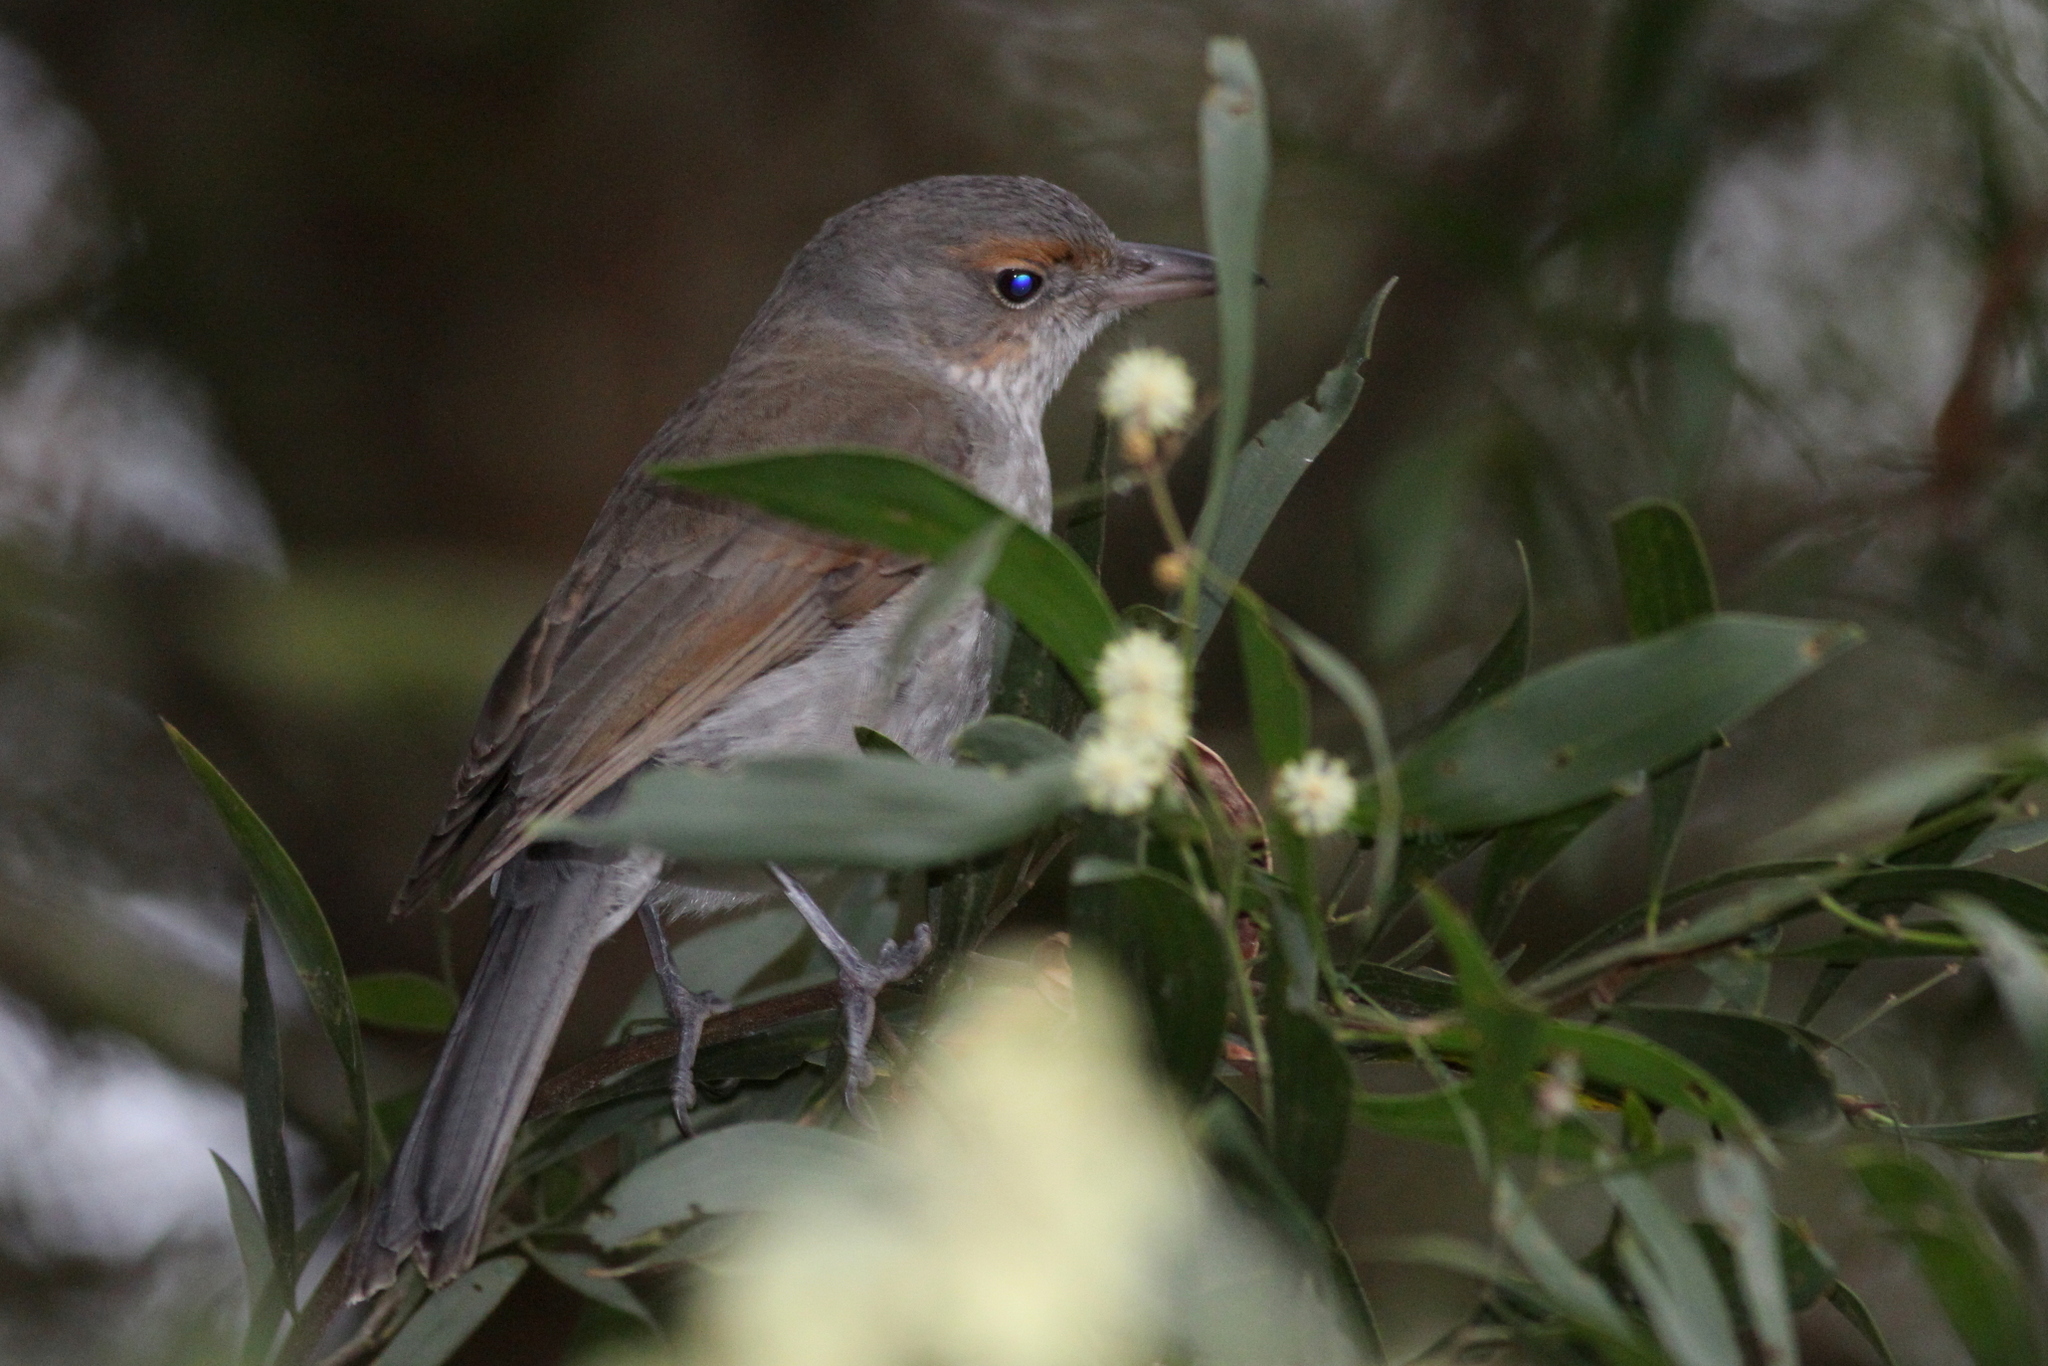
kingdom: Animalia
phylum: Chordata
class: Aves
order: Passeriformes
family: Pachycephalidae
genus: Colluricincla
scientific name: Colluricincla harmonica
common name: Grey shrikethrush
